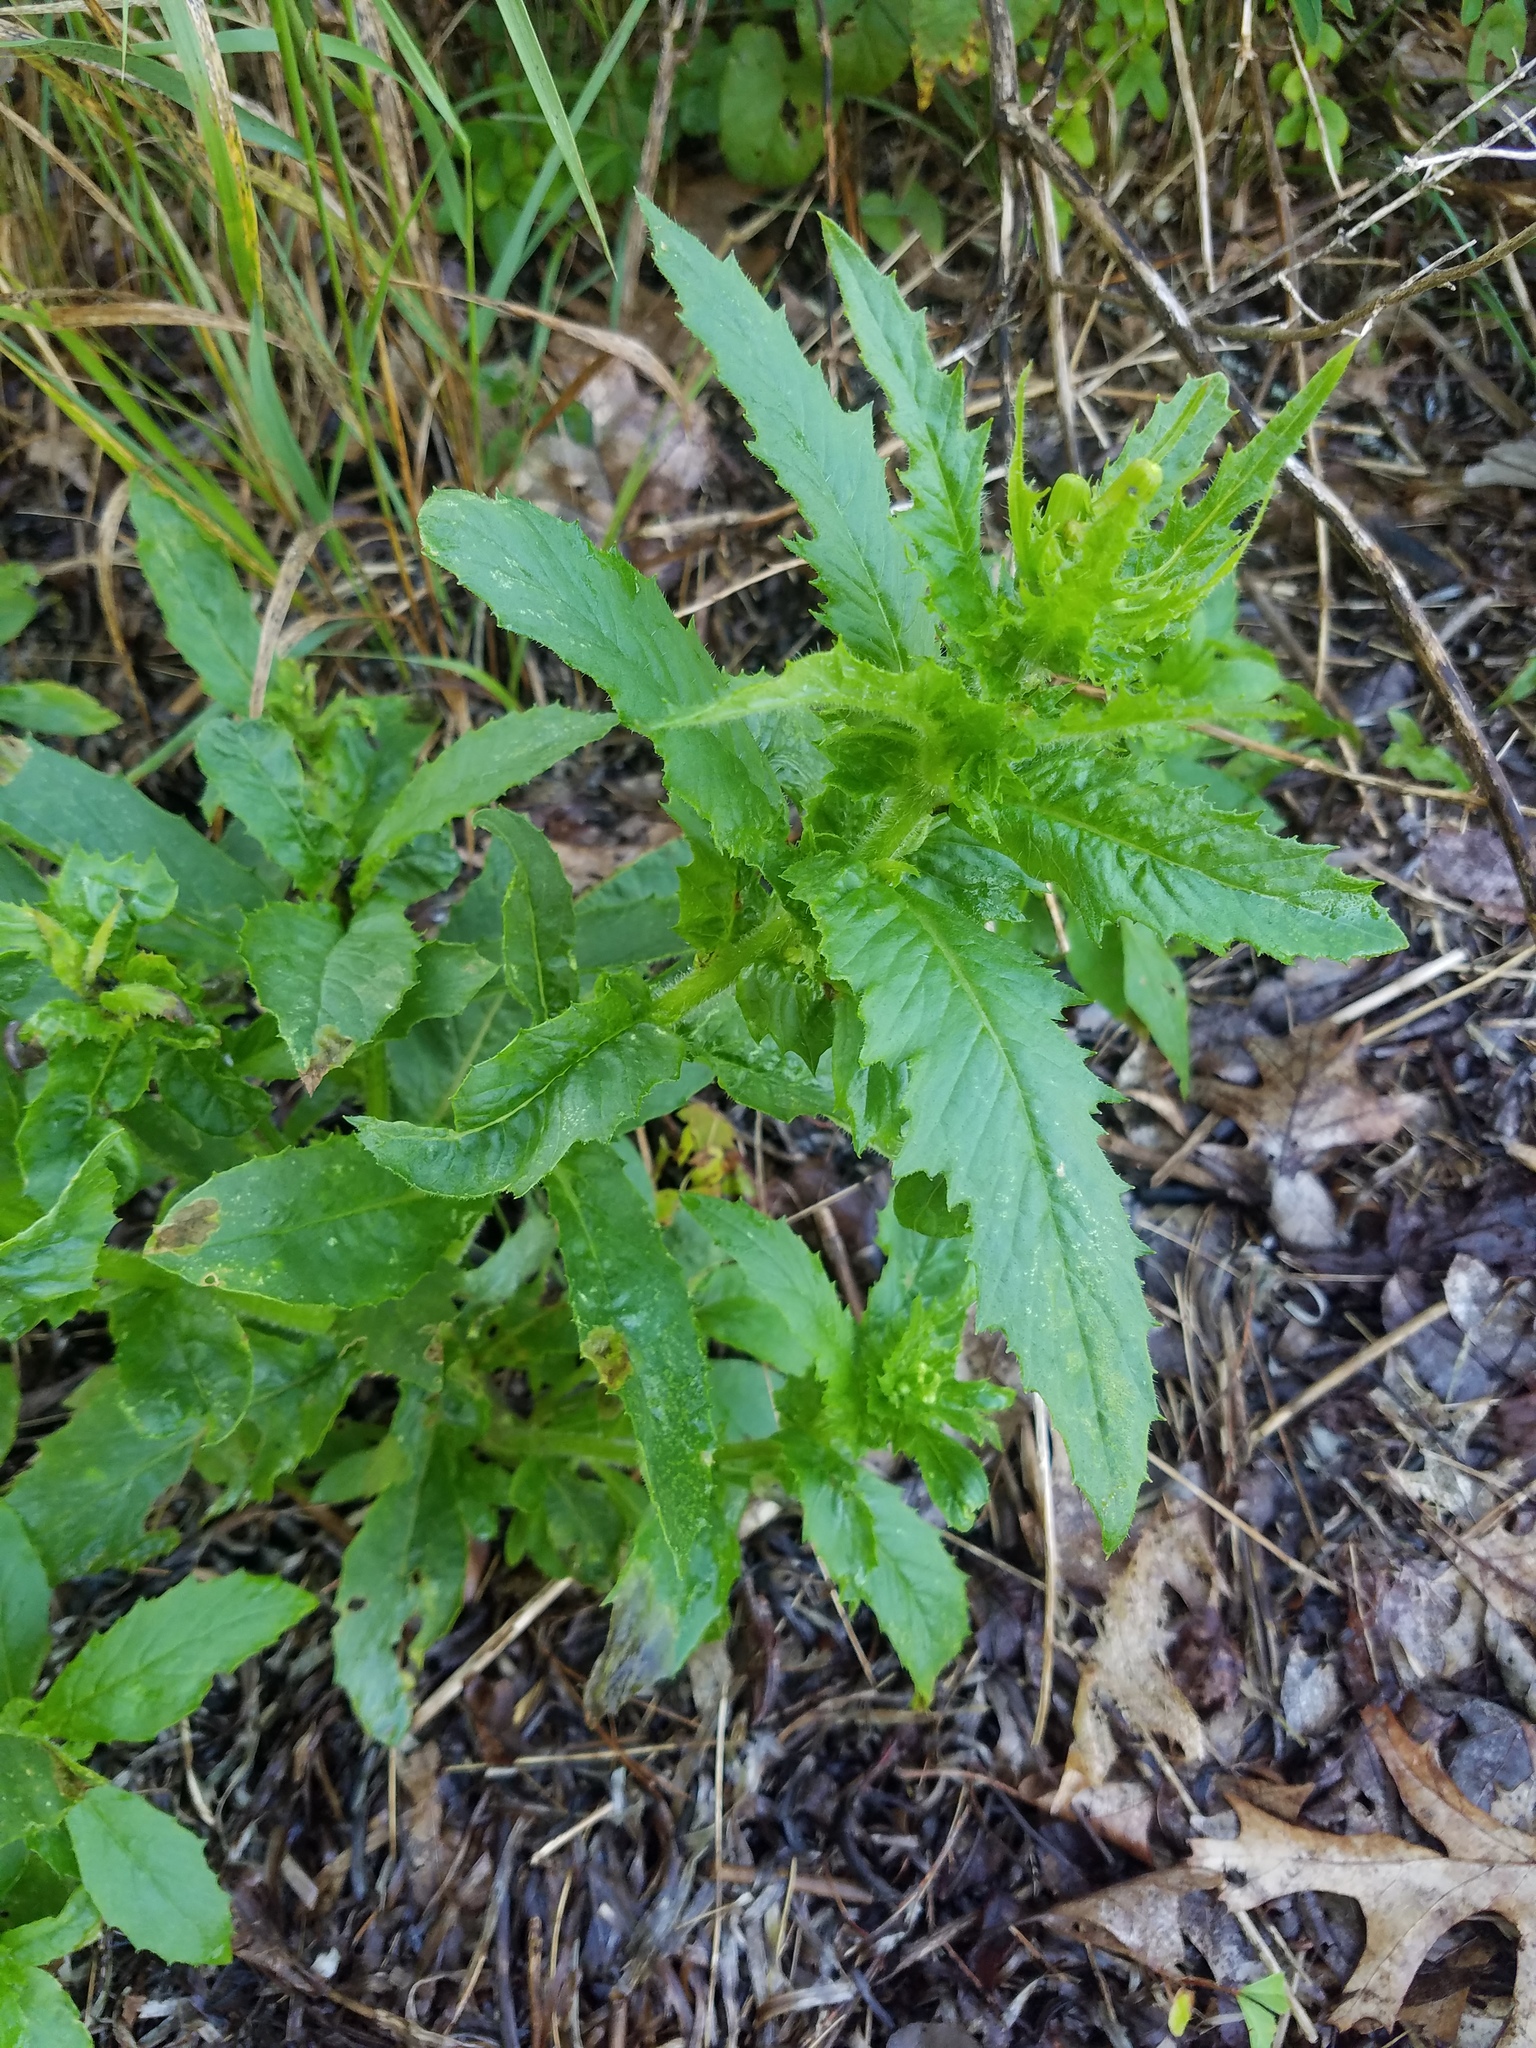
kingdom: Plantae
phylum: Tracheophyta
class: Magnoliopsida
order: Asterales
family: Asteraceae
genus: Erechtites
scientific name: Erechtites hieraciifolius
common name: American burnweed
